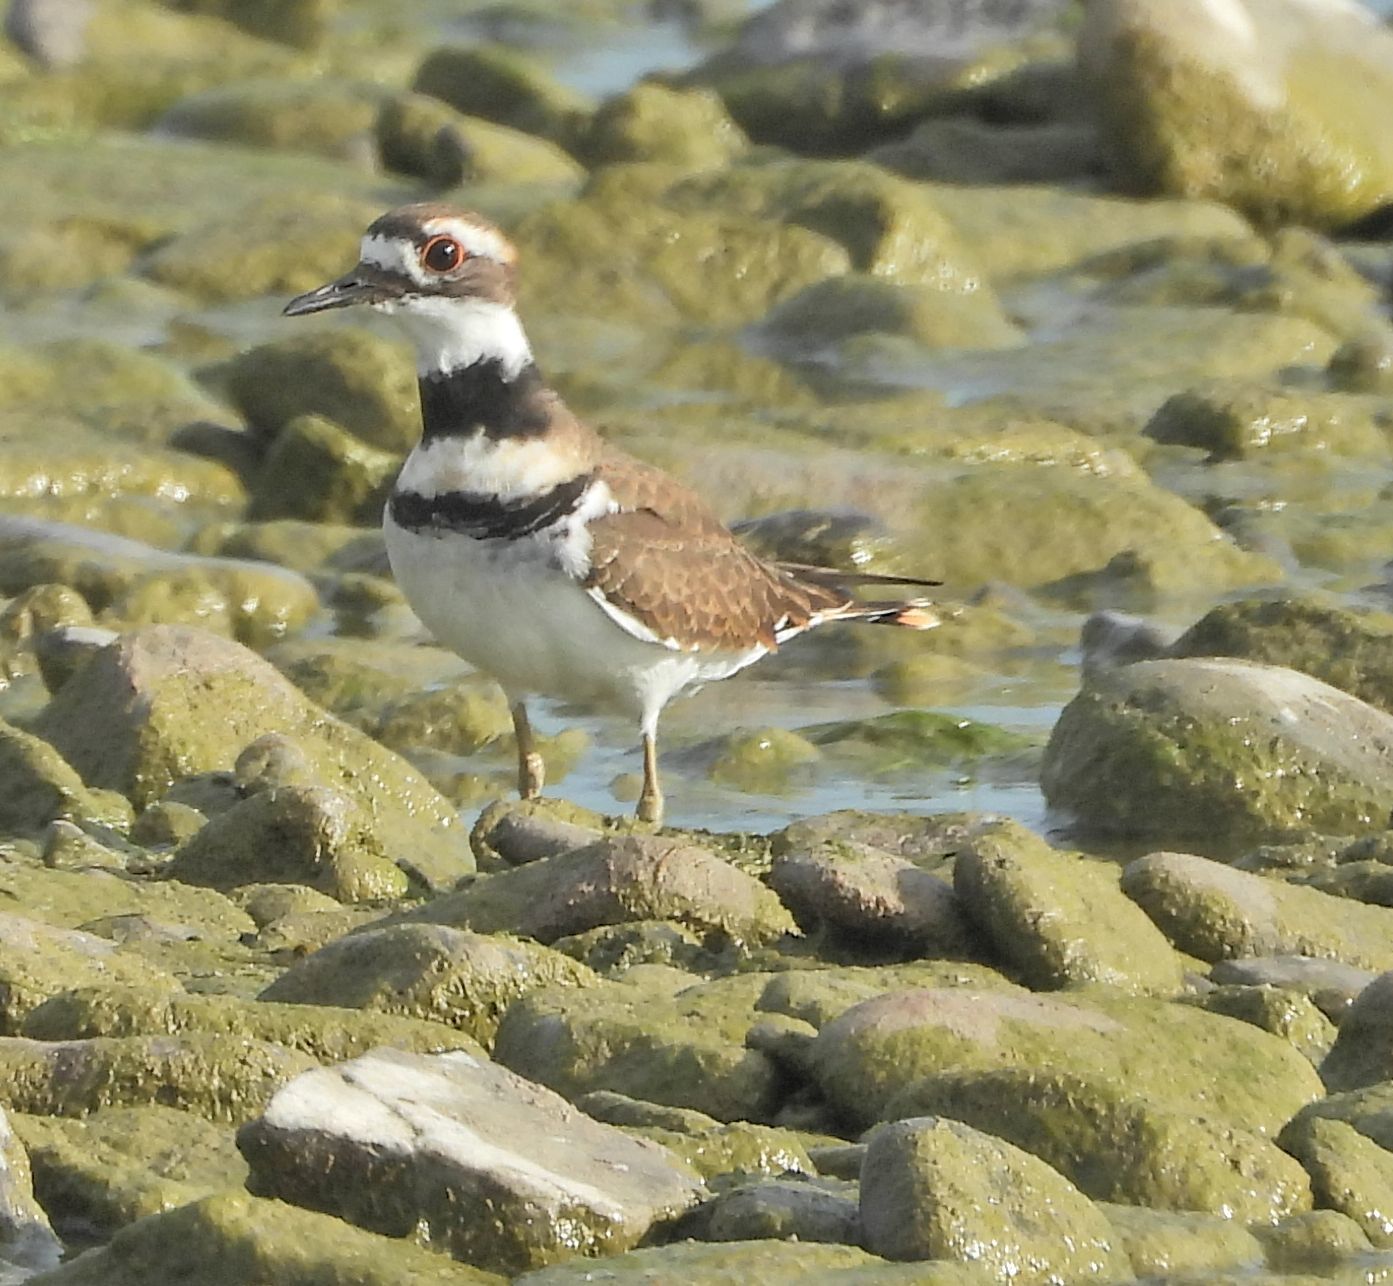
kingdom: Animalia
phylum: Chordata
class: Aves
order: Charadriiformes
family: Charadriidae
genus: Charadrius
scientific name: Charadrius vociferus
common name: Killdeer
